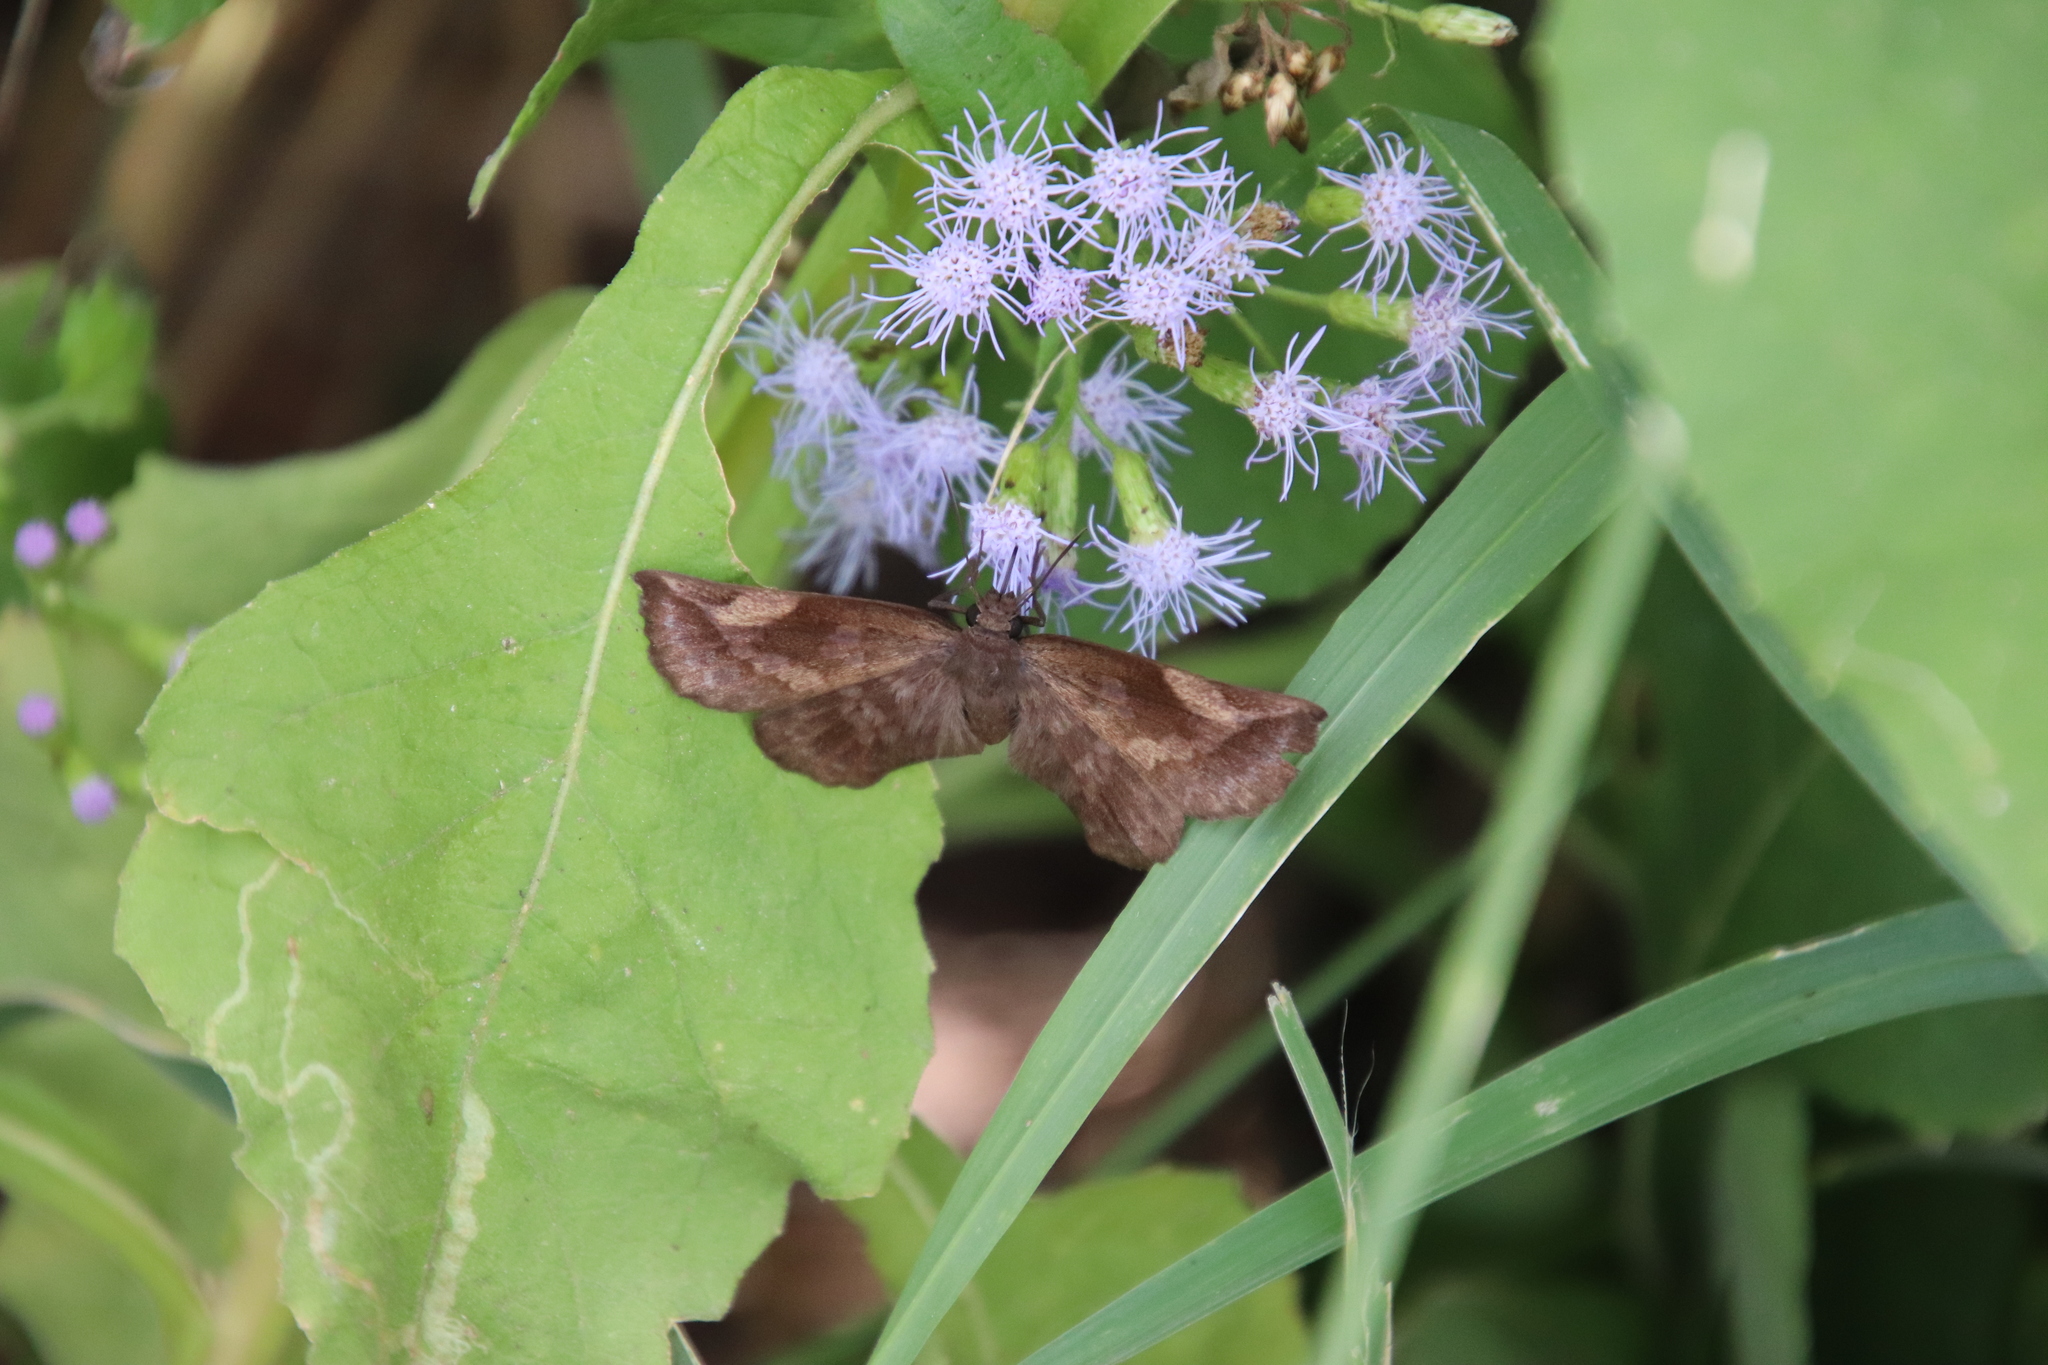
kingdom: Animalia
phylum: Arthropoda
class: Insecta
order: Lepidoptera
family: Hesperiidae
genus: Achlyodes
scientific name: Achlyodes thraso
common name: Sickle-winged skipper
